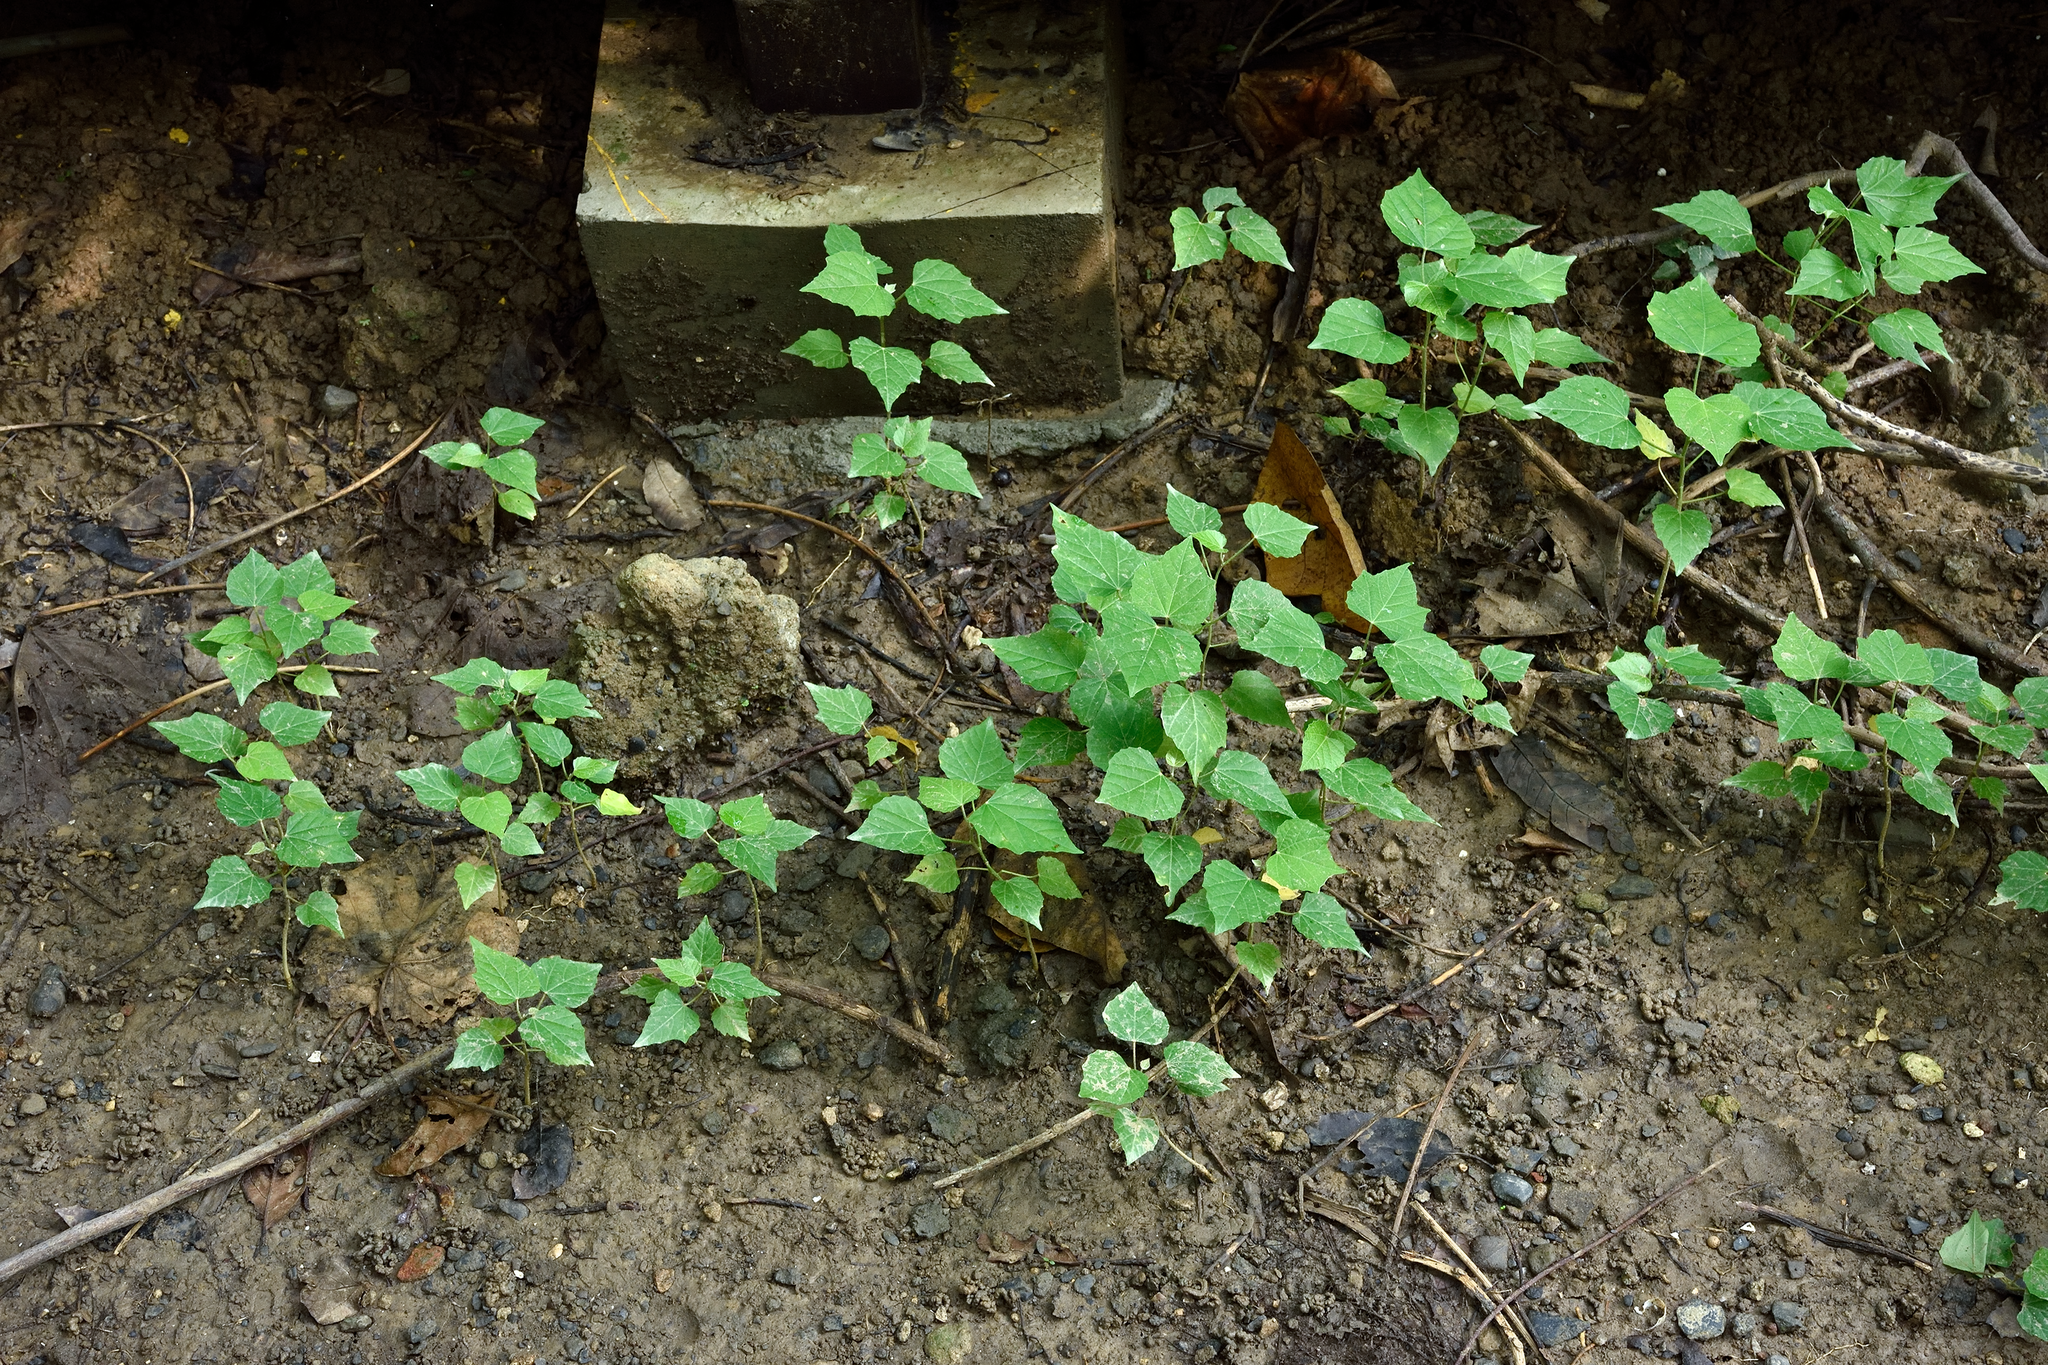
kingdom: Plantae
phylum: Tracheophyta
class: Magnoliopsida
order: Malpighiales
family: Euphorbiaceae
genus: Melanolepis
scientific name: Melanolepis multiglandulosa
